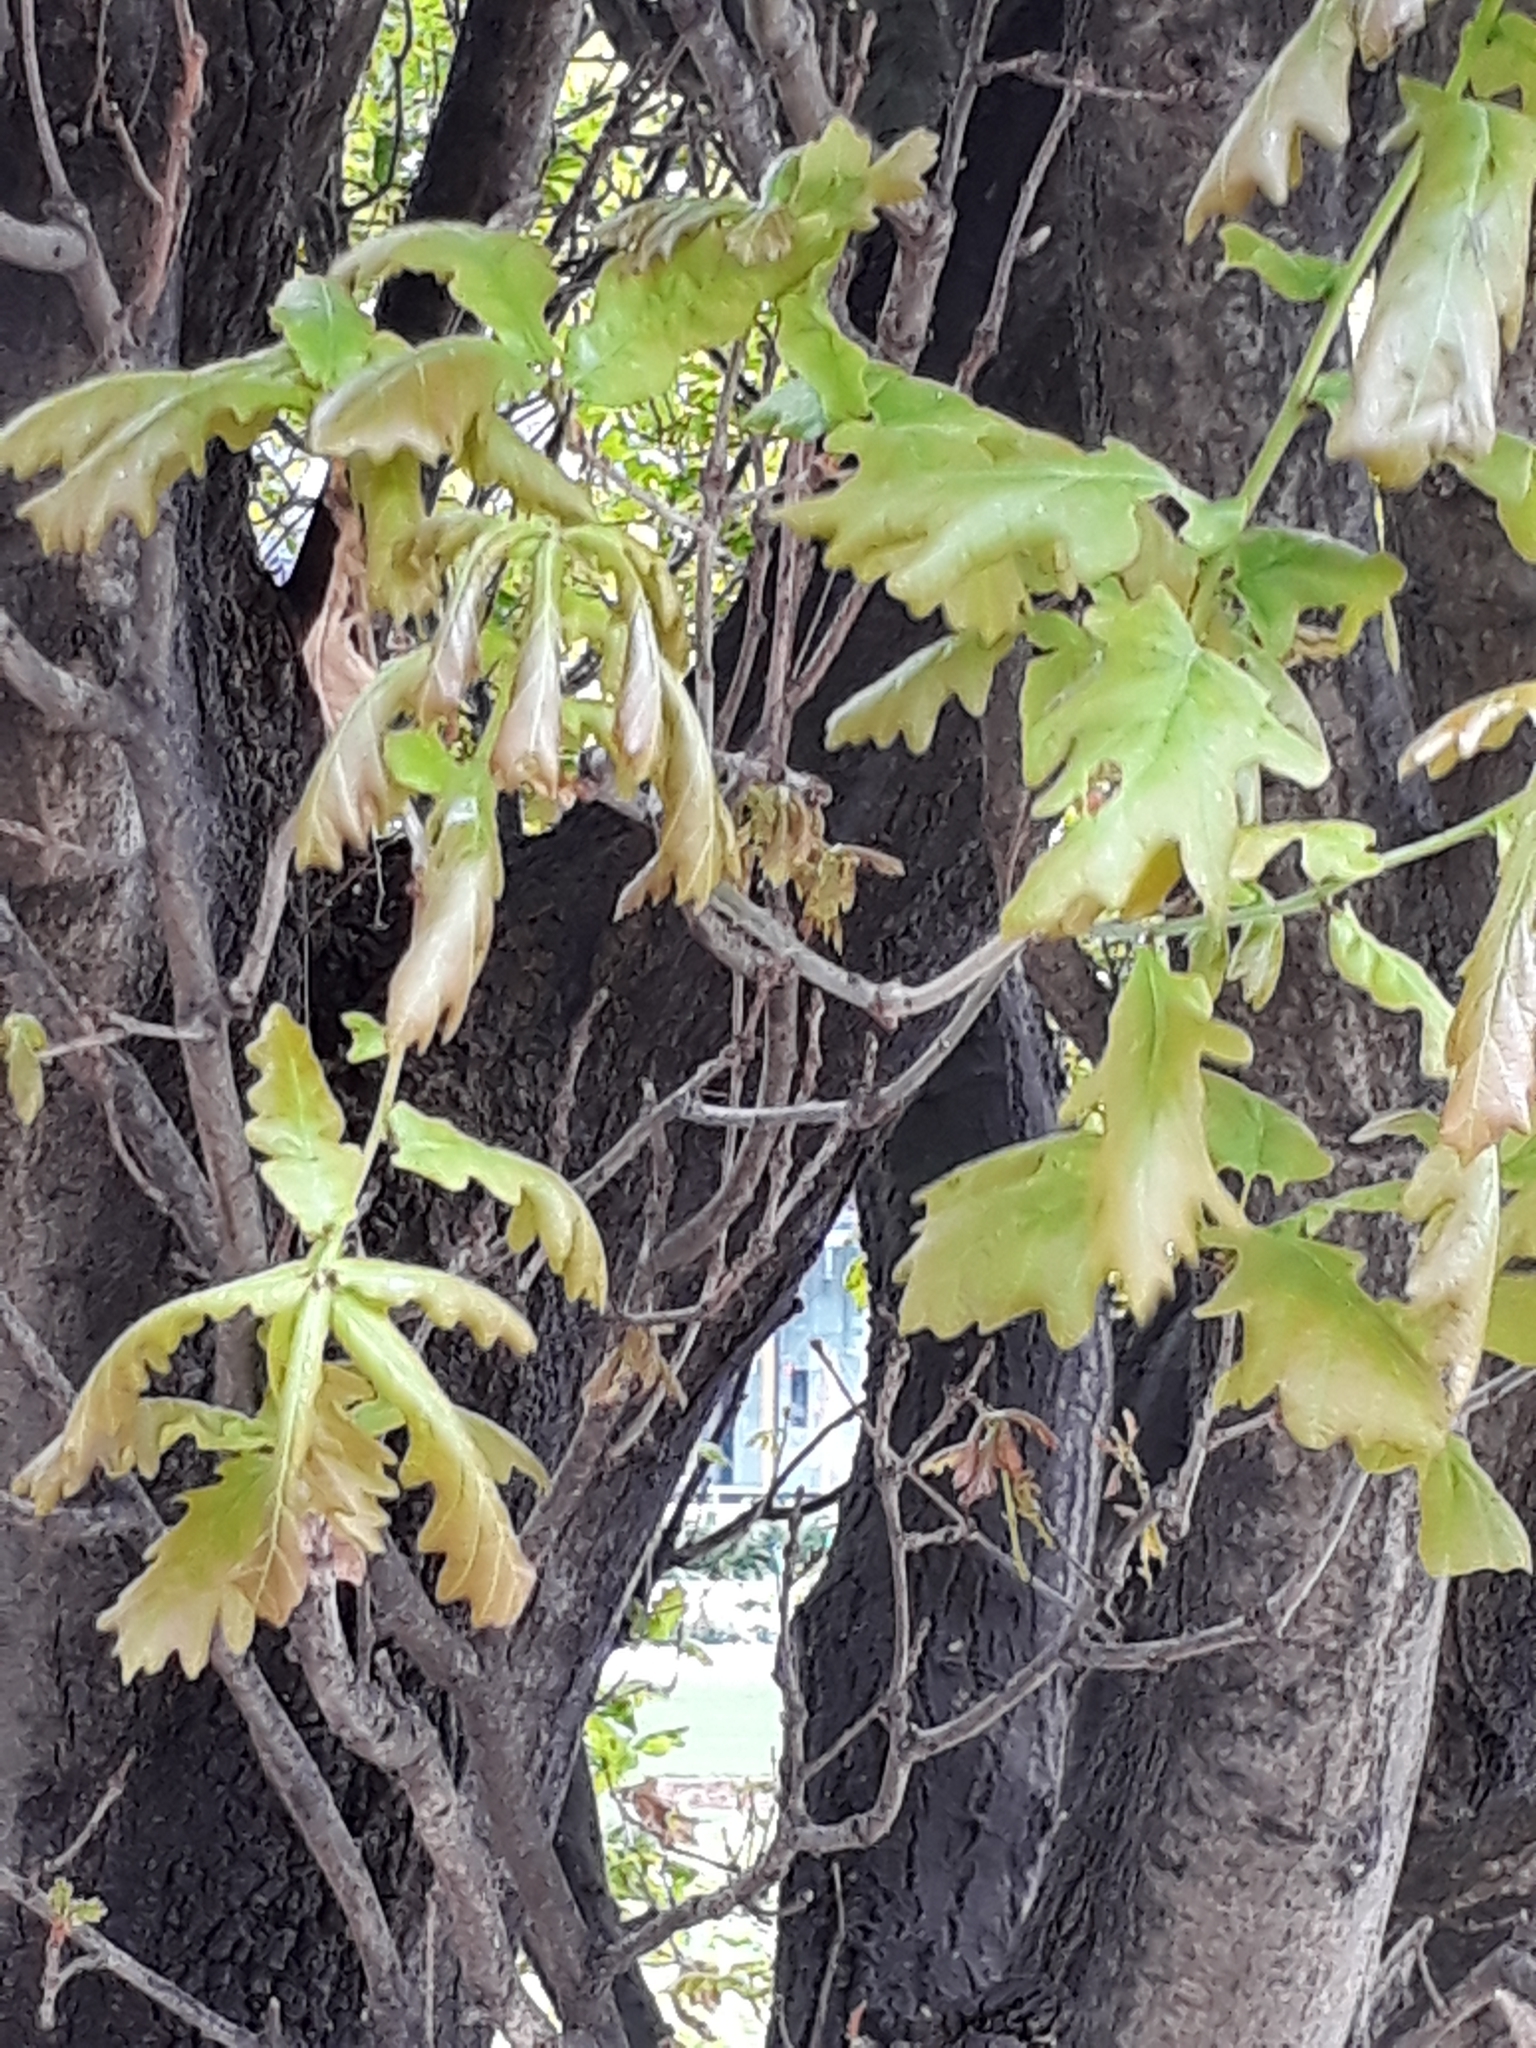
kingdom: Plantae
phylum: Tracheophyta
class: Magnoliopsida
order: Fagales
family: Fagaceae
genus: Quercus
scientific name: Quercus robur
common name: Pedunculate oak
